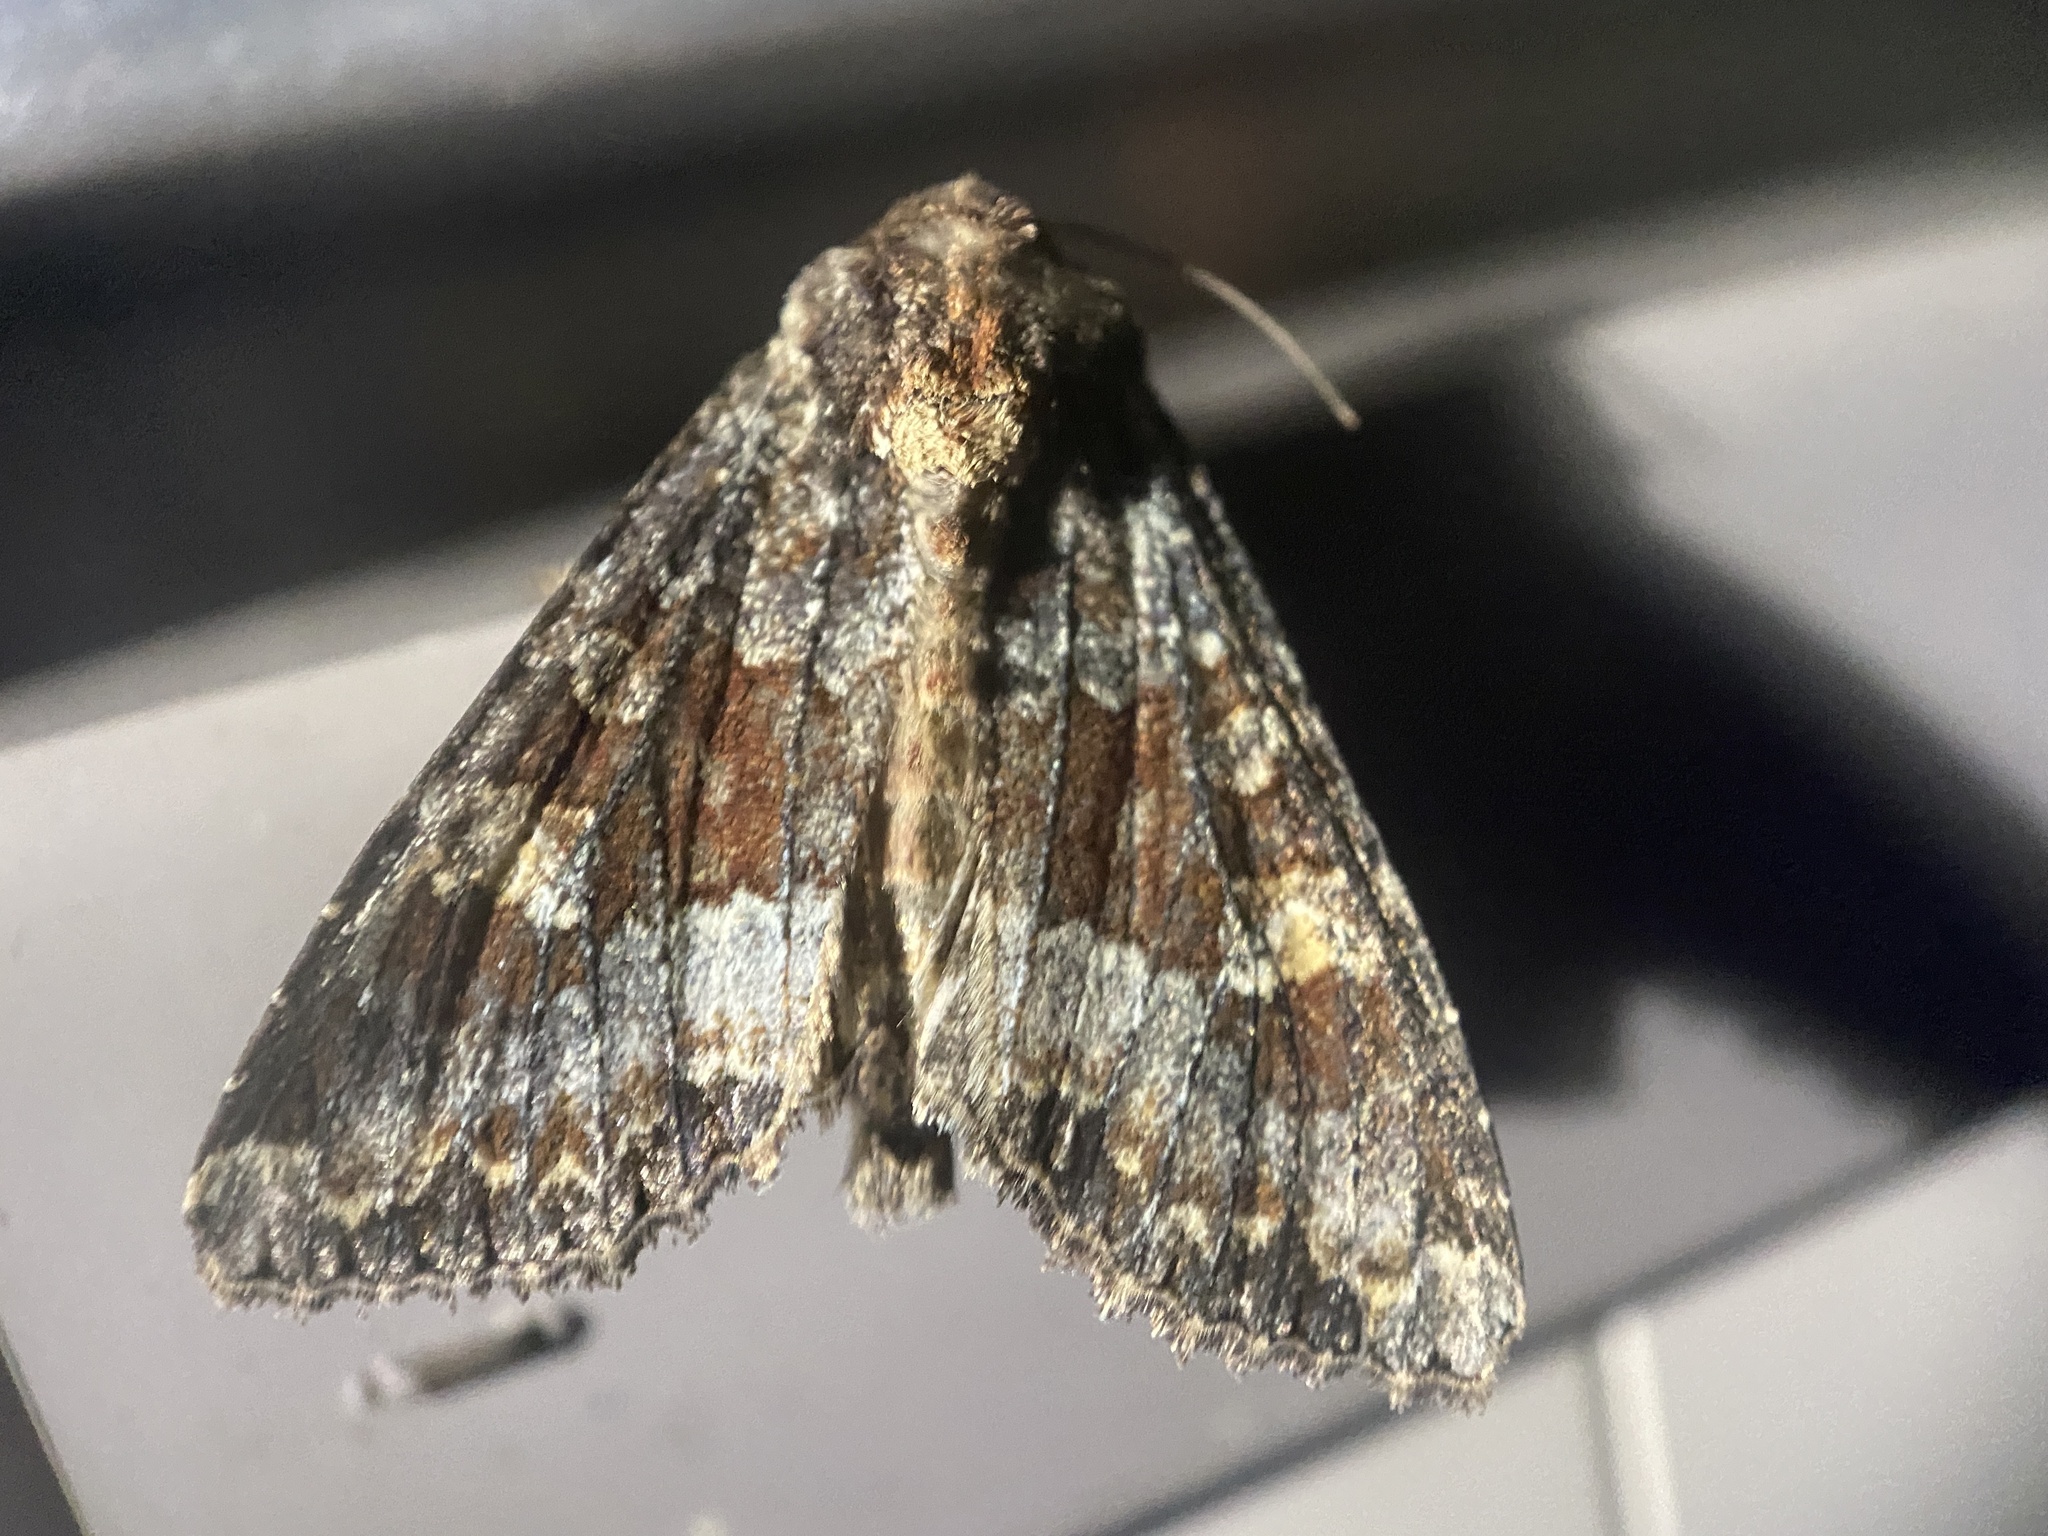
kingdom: Animalia
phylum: Arthropoda
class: Insecta
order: Lepidoptera
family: Noctuidae
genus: Apamea
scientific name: Apamea amputatrix
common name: Yellow-headed cutworm moth
